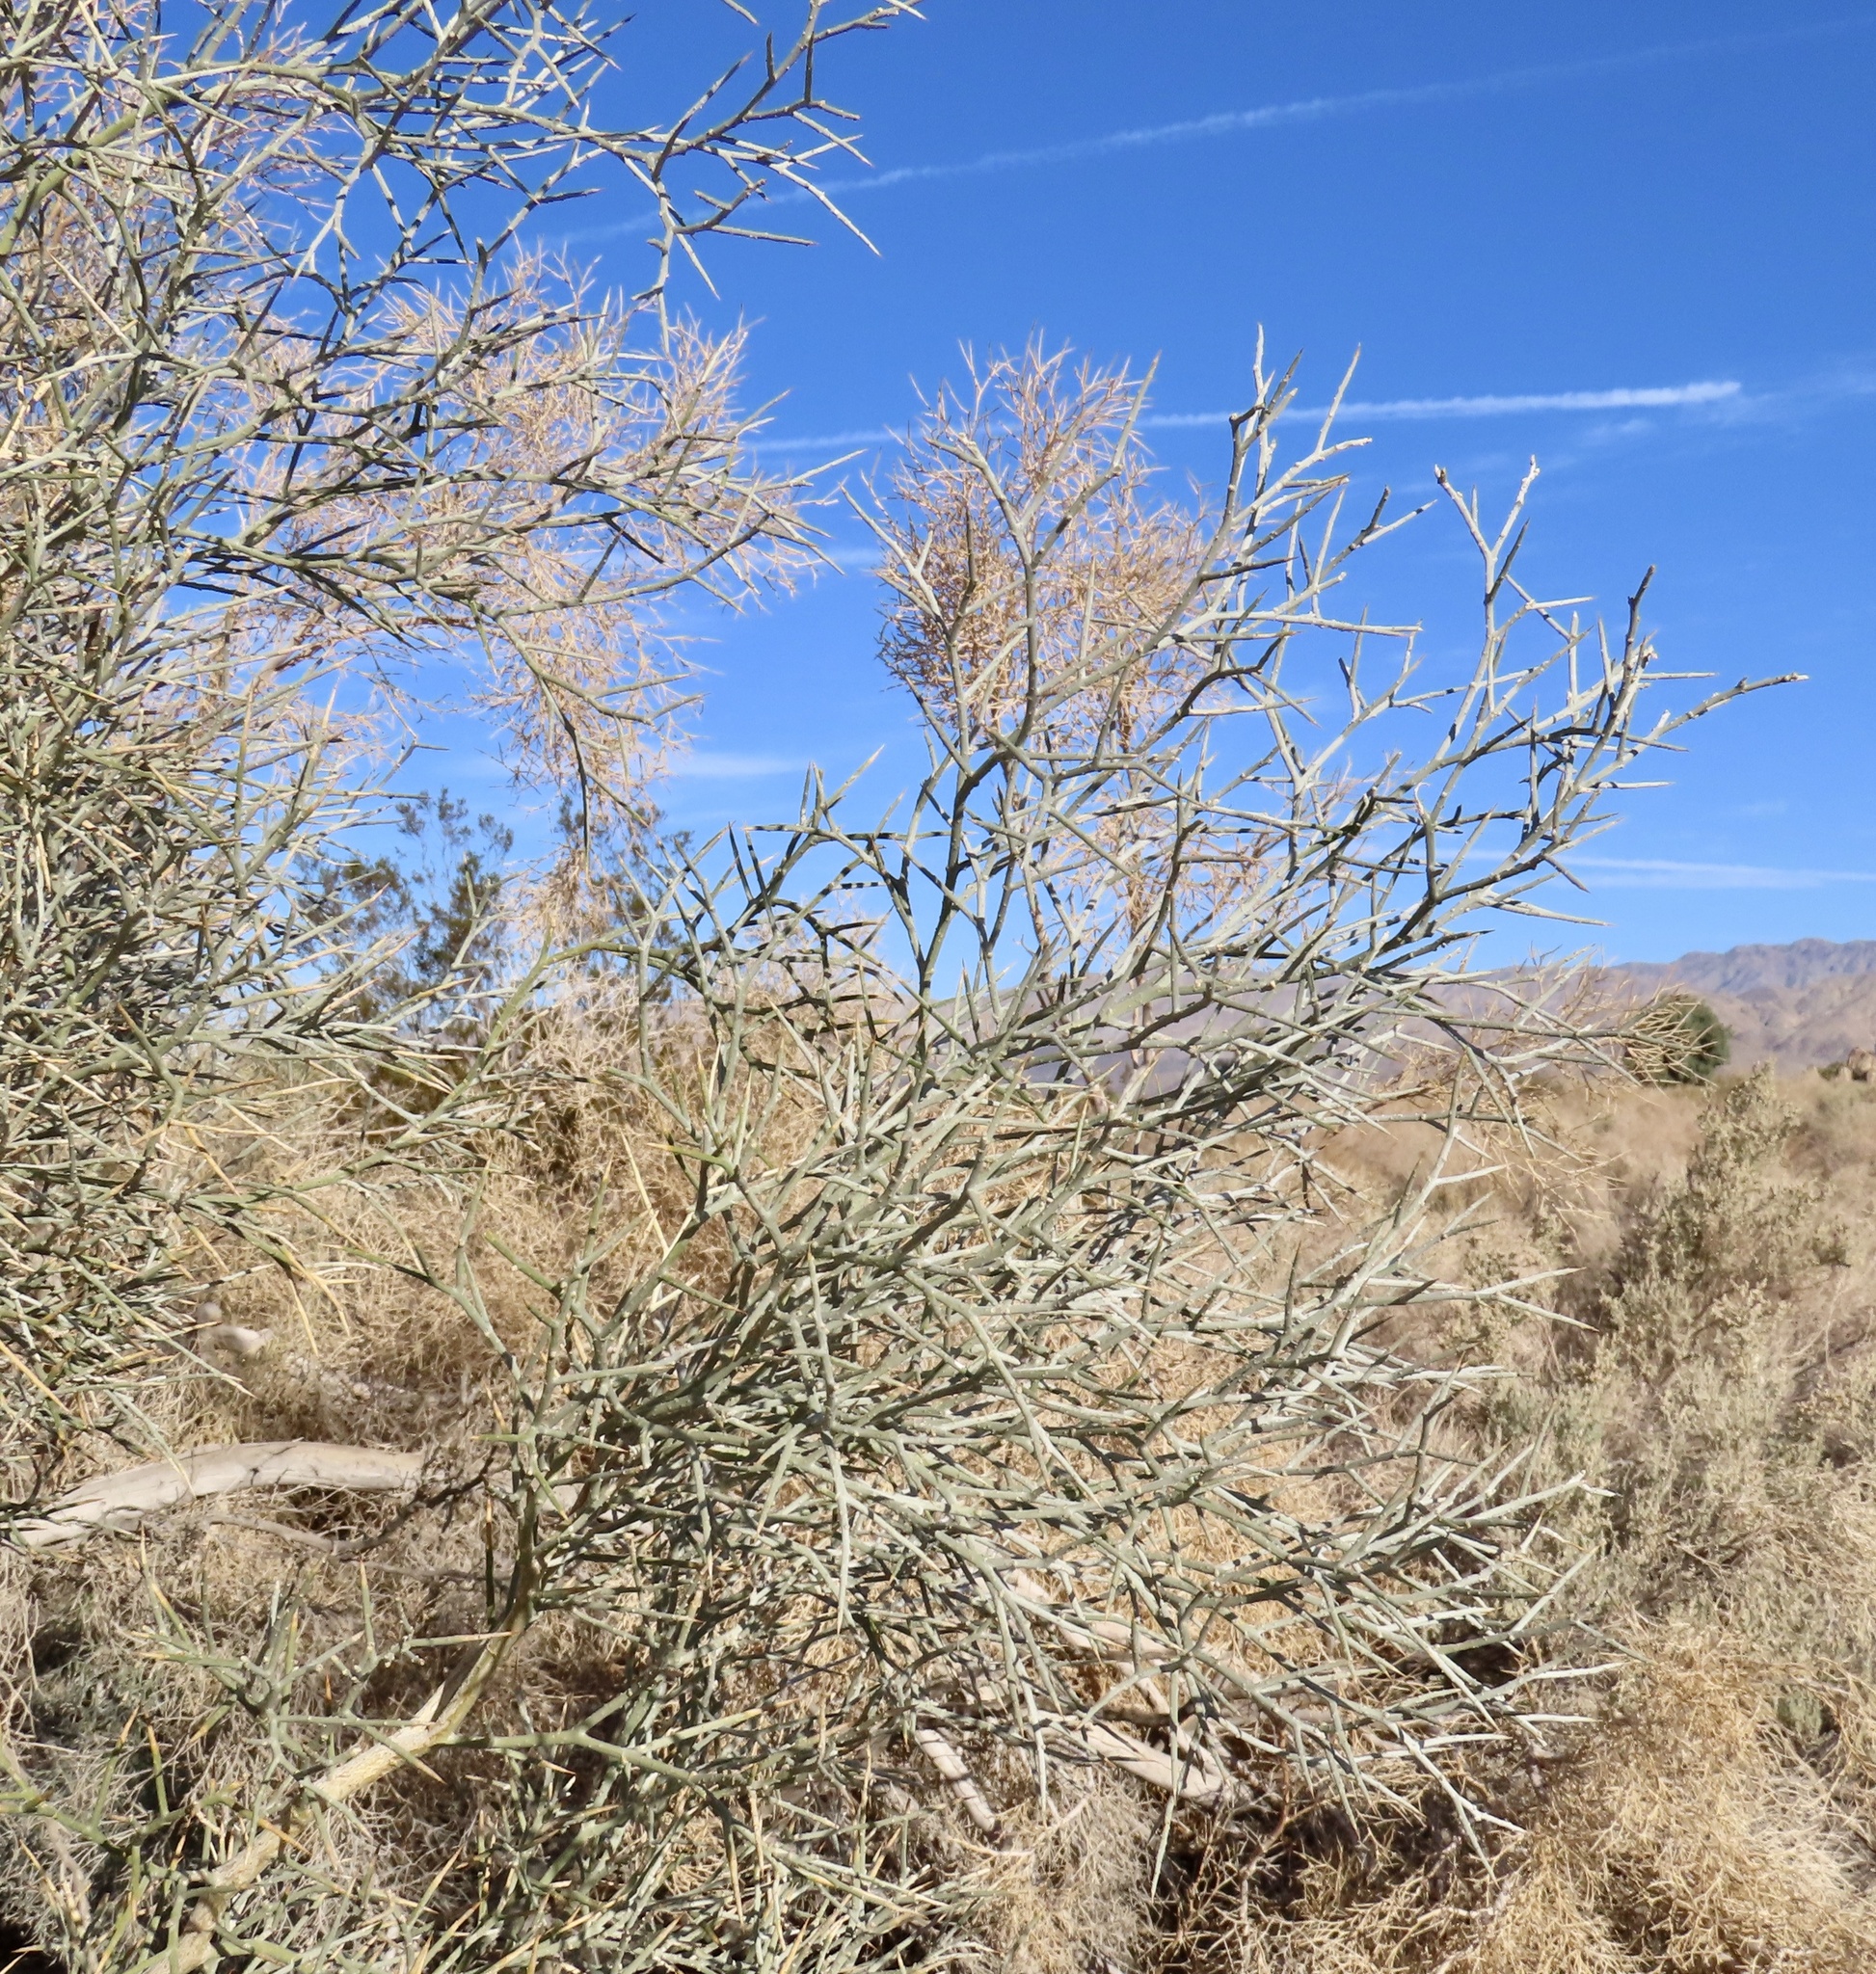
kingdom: Plantae
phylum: Tracheophyta
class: Magnoliopsida
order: Fabales
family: Fabaceae
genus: Psorothamnus
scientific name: Psorothamnus spinosus
